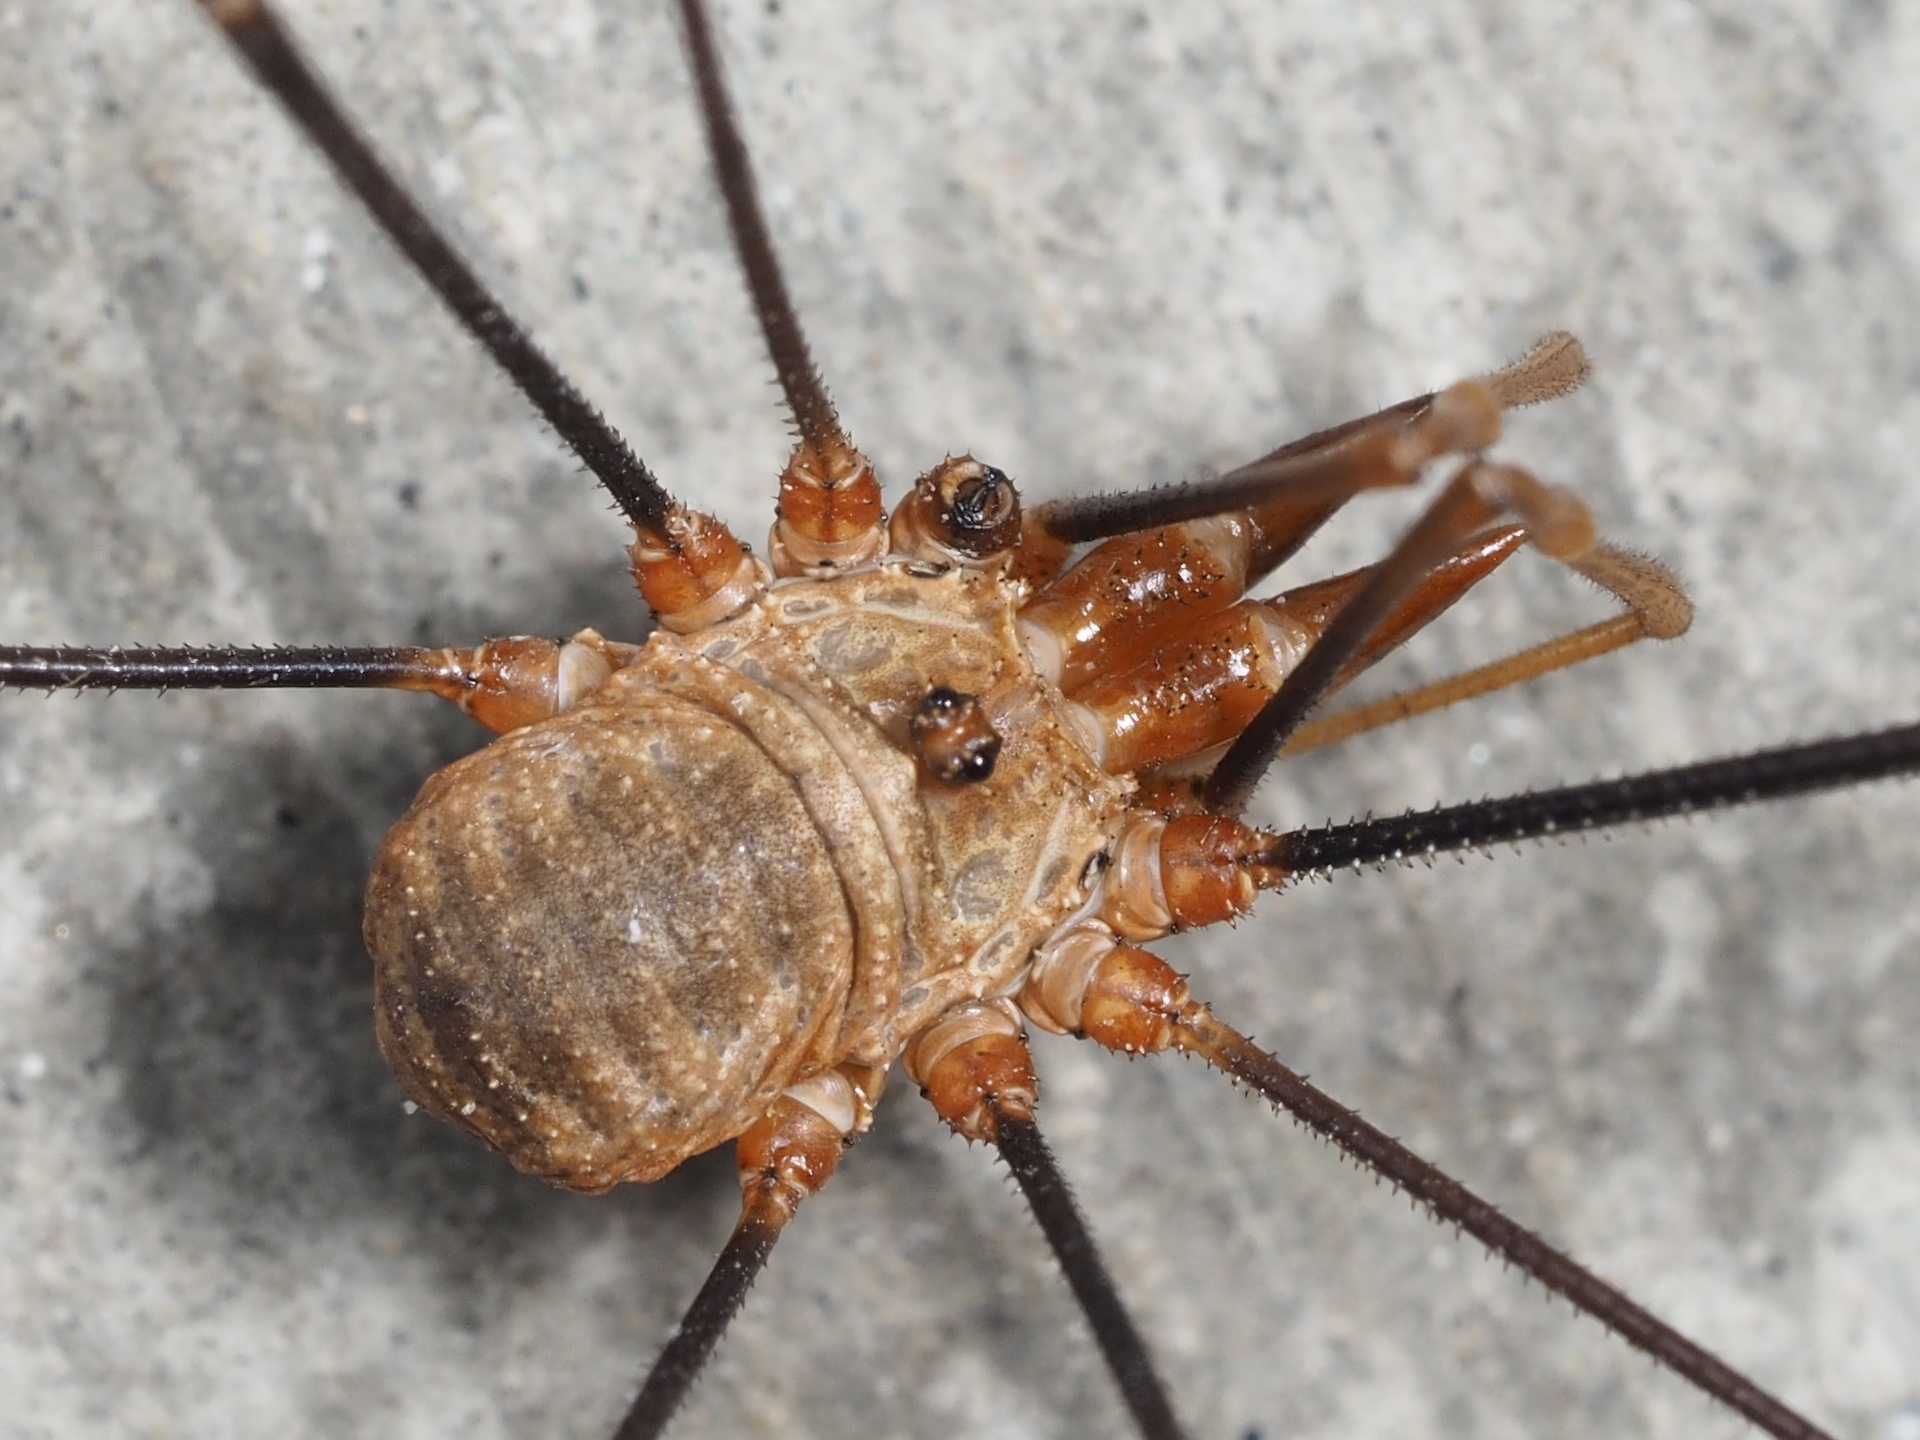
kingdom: Animalia
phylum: Arthropoda
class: Arachnida
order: Opiliones
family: Phalangiidae
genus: Phalangium
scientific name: Phalangium opilio
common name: Daddy longleg
